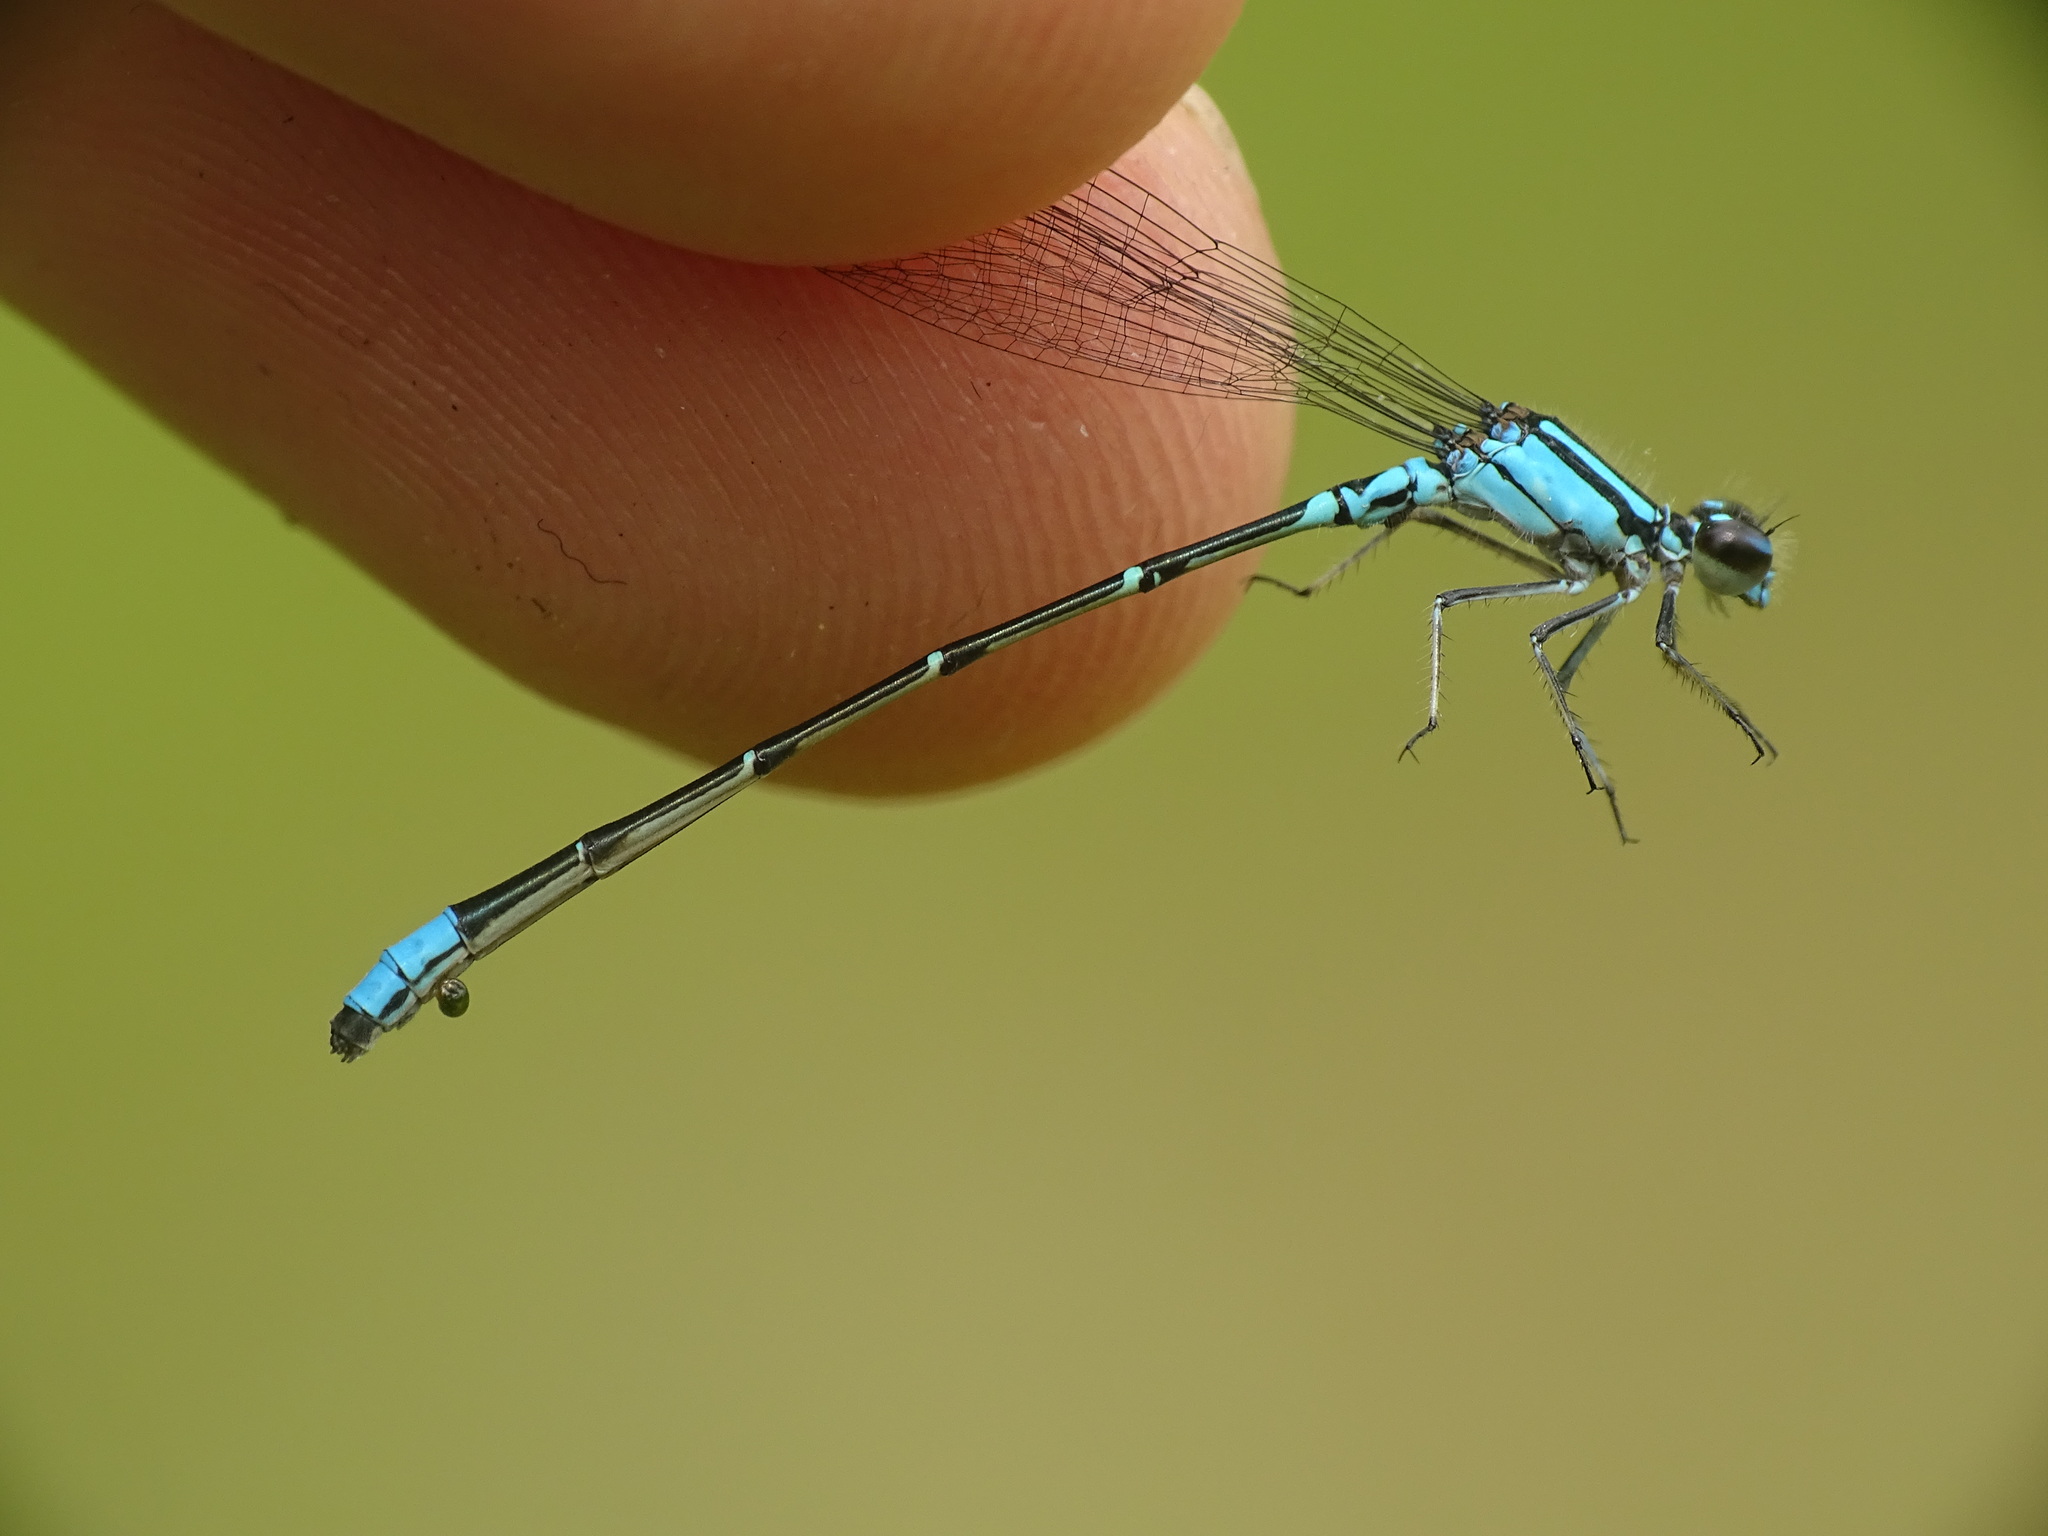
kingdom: Animalia
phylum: Arthropoda
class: Insecta
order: Odonata
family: Coenagrionidae
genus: Enallagma
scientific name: Enallagma geminatum
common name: Skimming bluet
